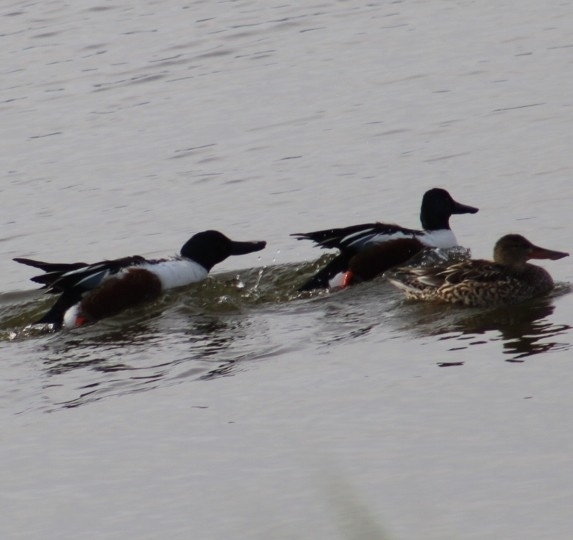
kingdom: Animalia
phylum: Chordata
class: Aves
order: Anseriformes
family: Anatidae
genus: Spatula
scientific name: Spatula clypeata
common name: Northern shoveler
